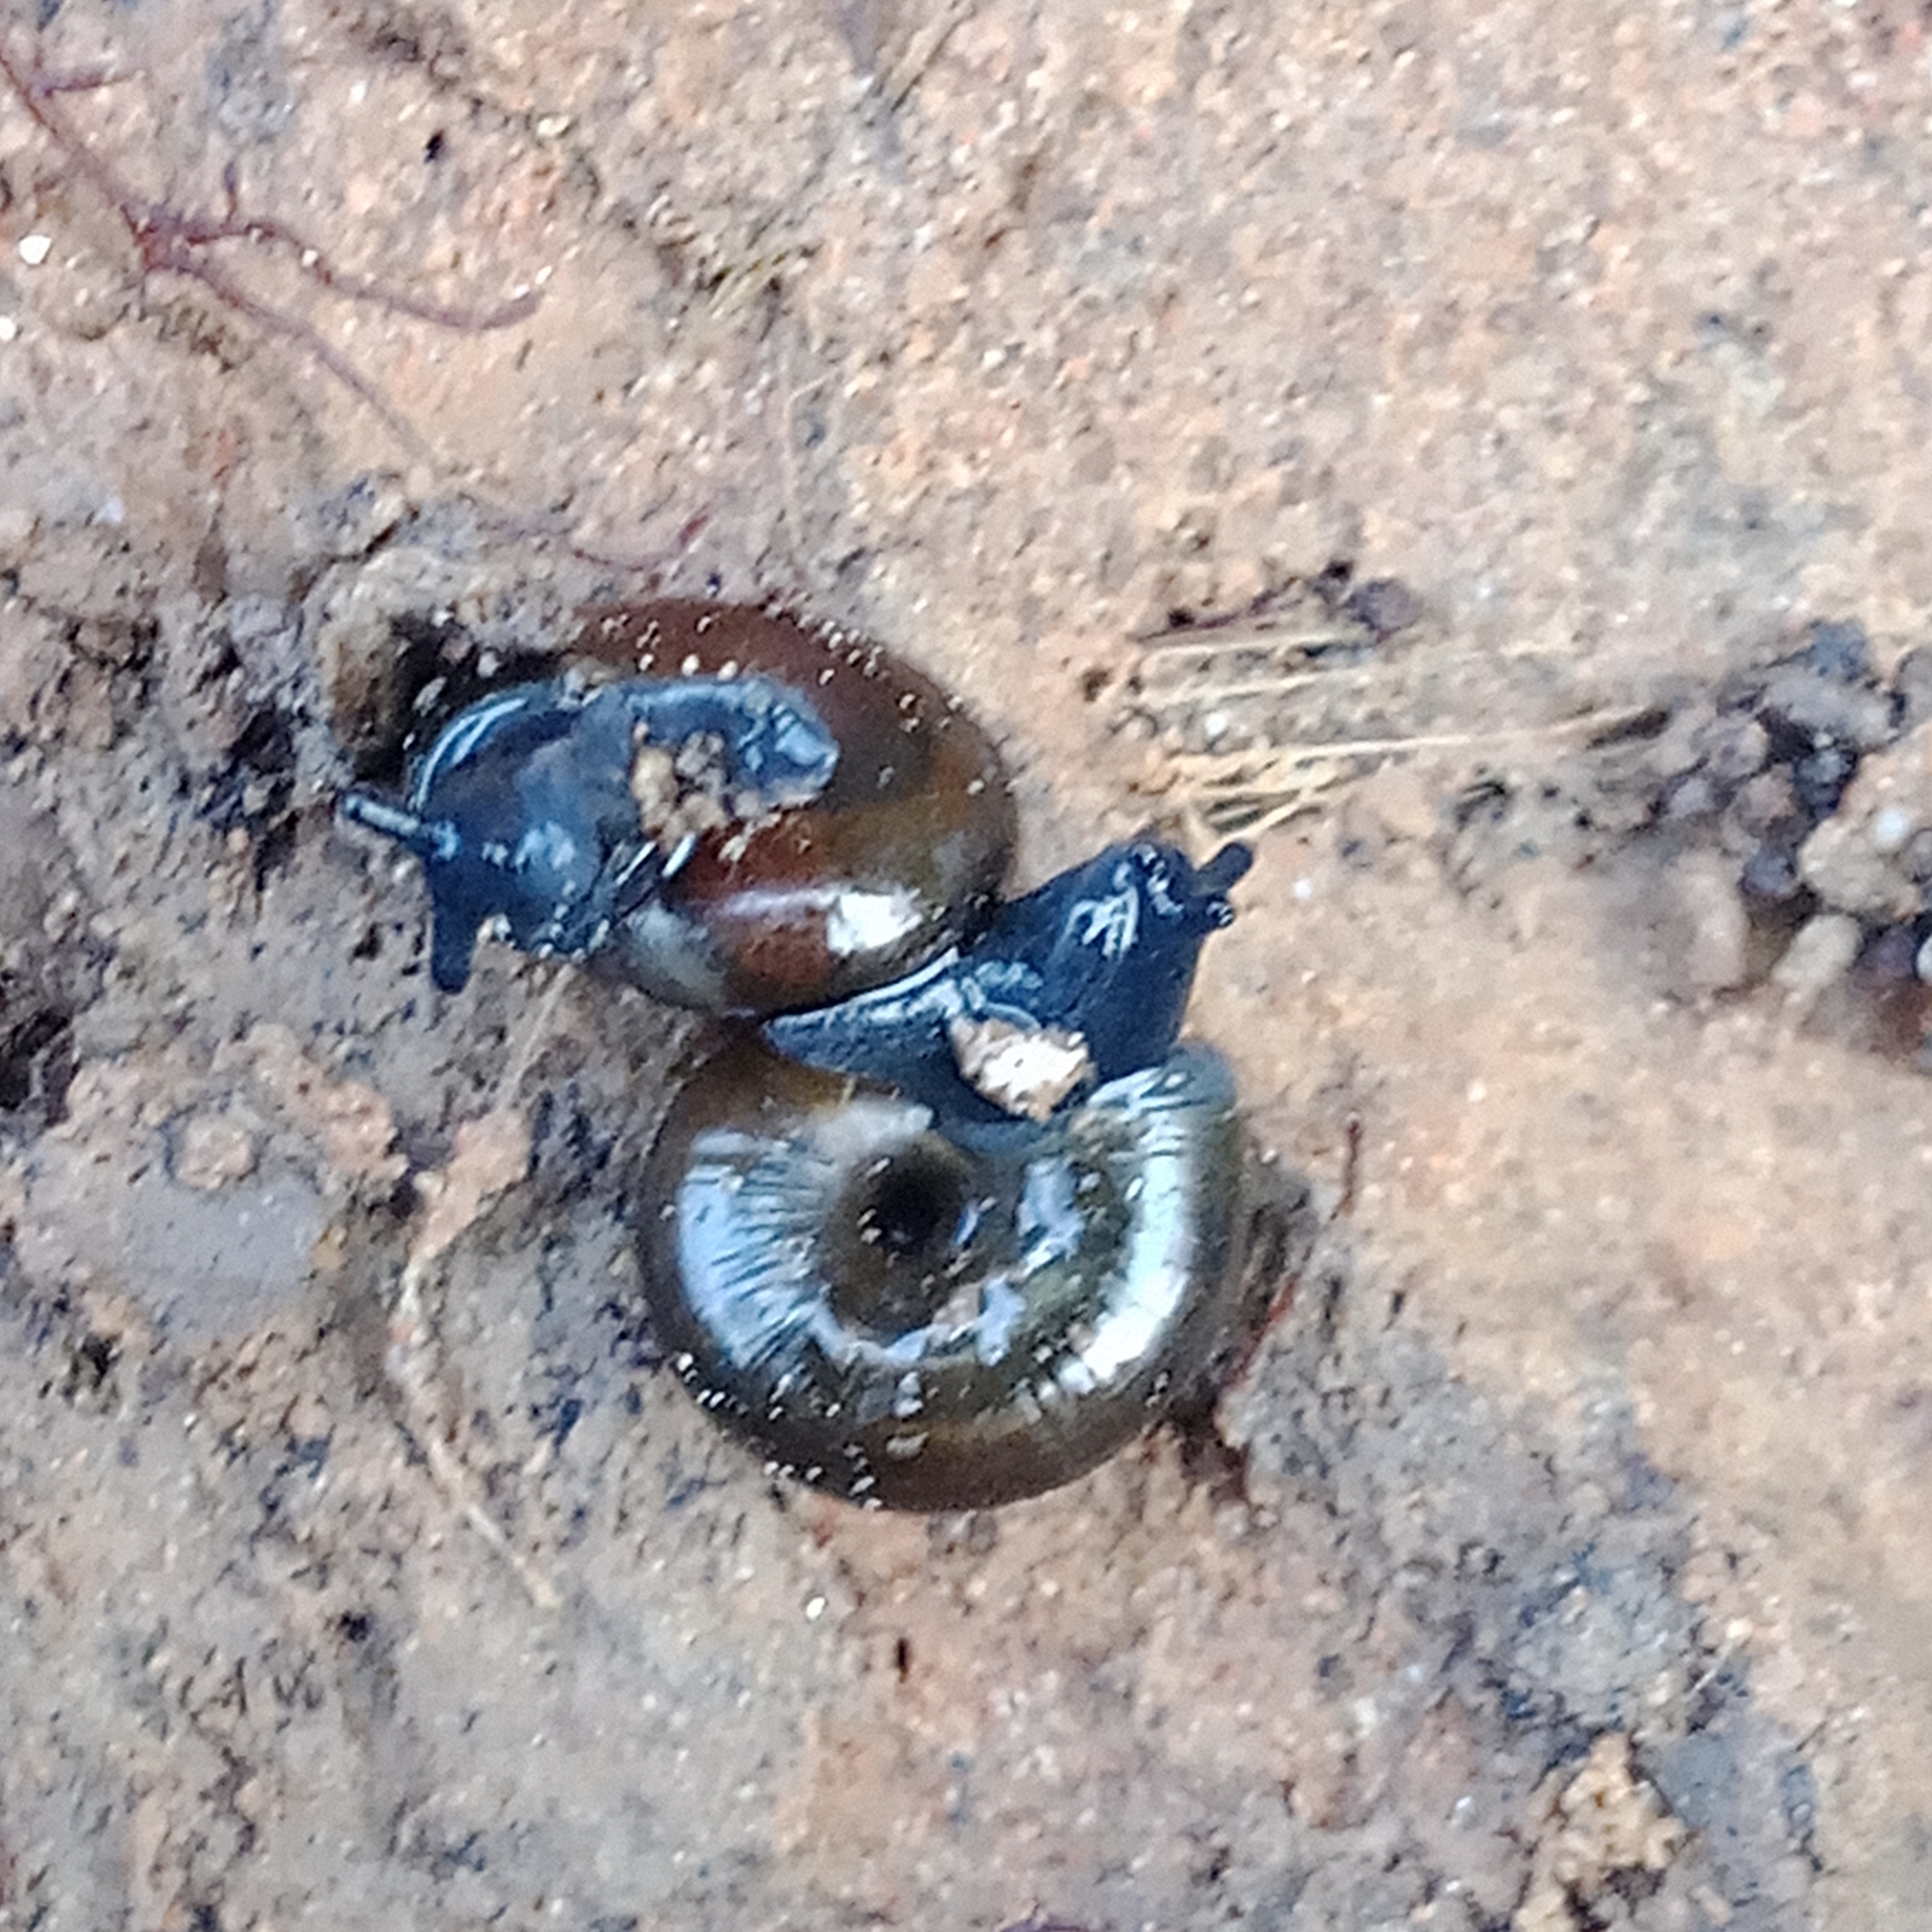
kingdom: Animalia
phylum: Mollusca
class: Gastropoda
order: Stylommatophora
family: Gastrodontidae
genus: Zonitoides
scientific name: Zonitoides nitidus
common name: Shiny glass snail
